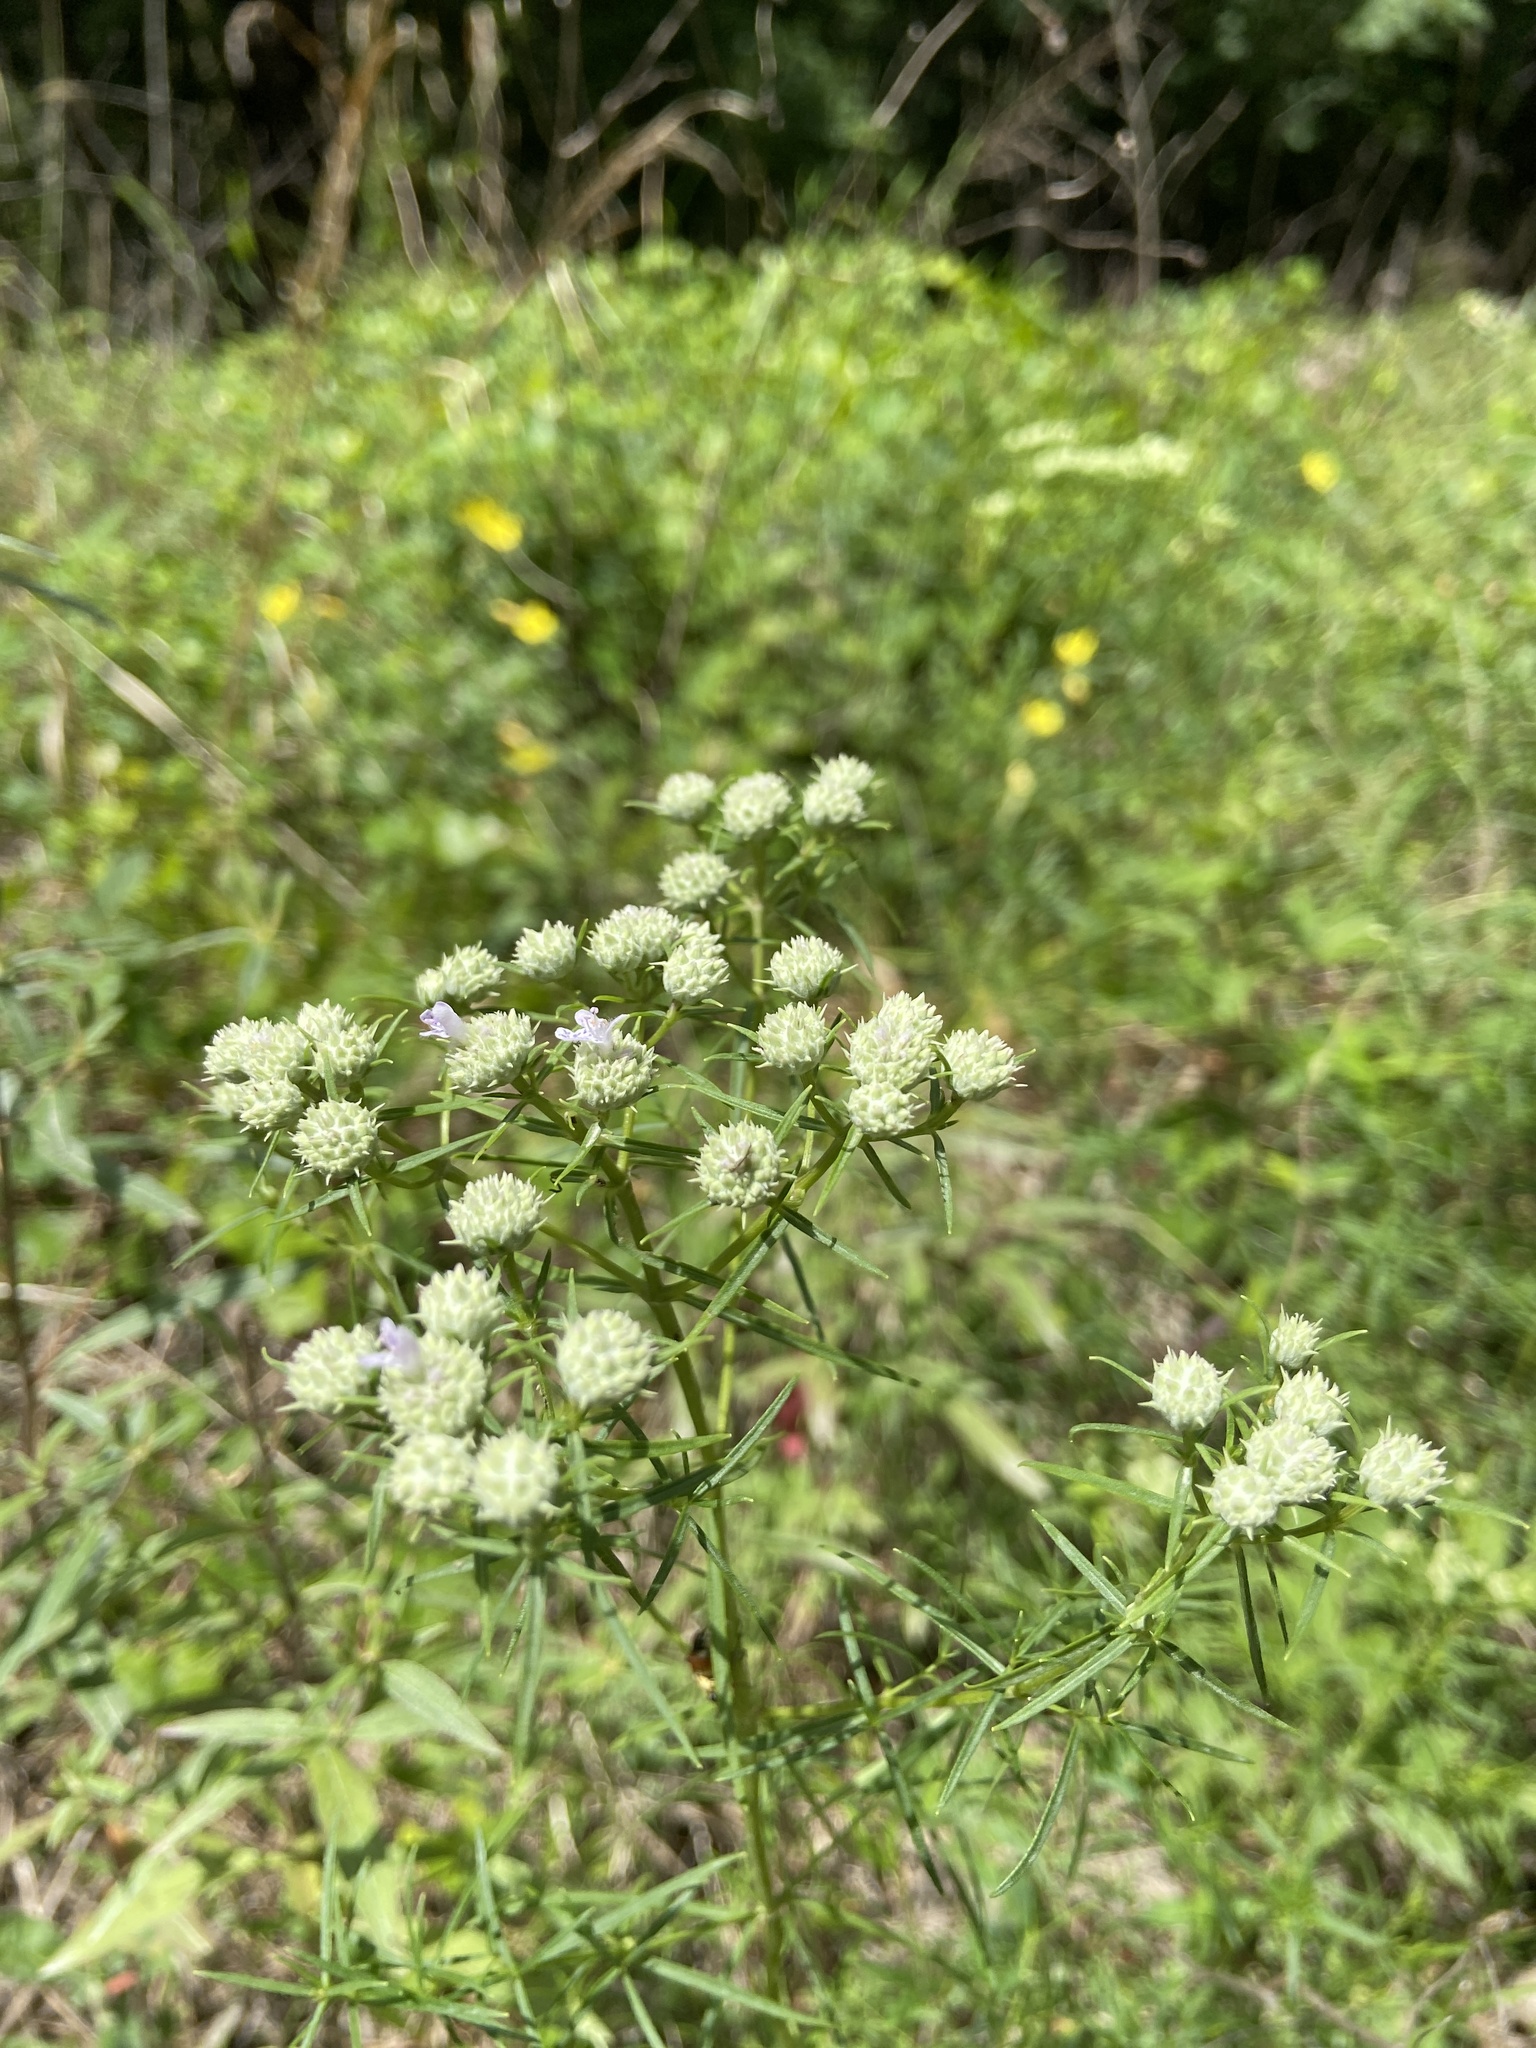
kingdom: Plantae
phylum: Tracheophyta
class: Magnoliopsida
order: Lamiales
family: Lamiaceae
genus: Pycnanthemum
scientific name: Pycnanthemum tenuifolium
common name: Narrow-leaf mountain-mint
